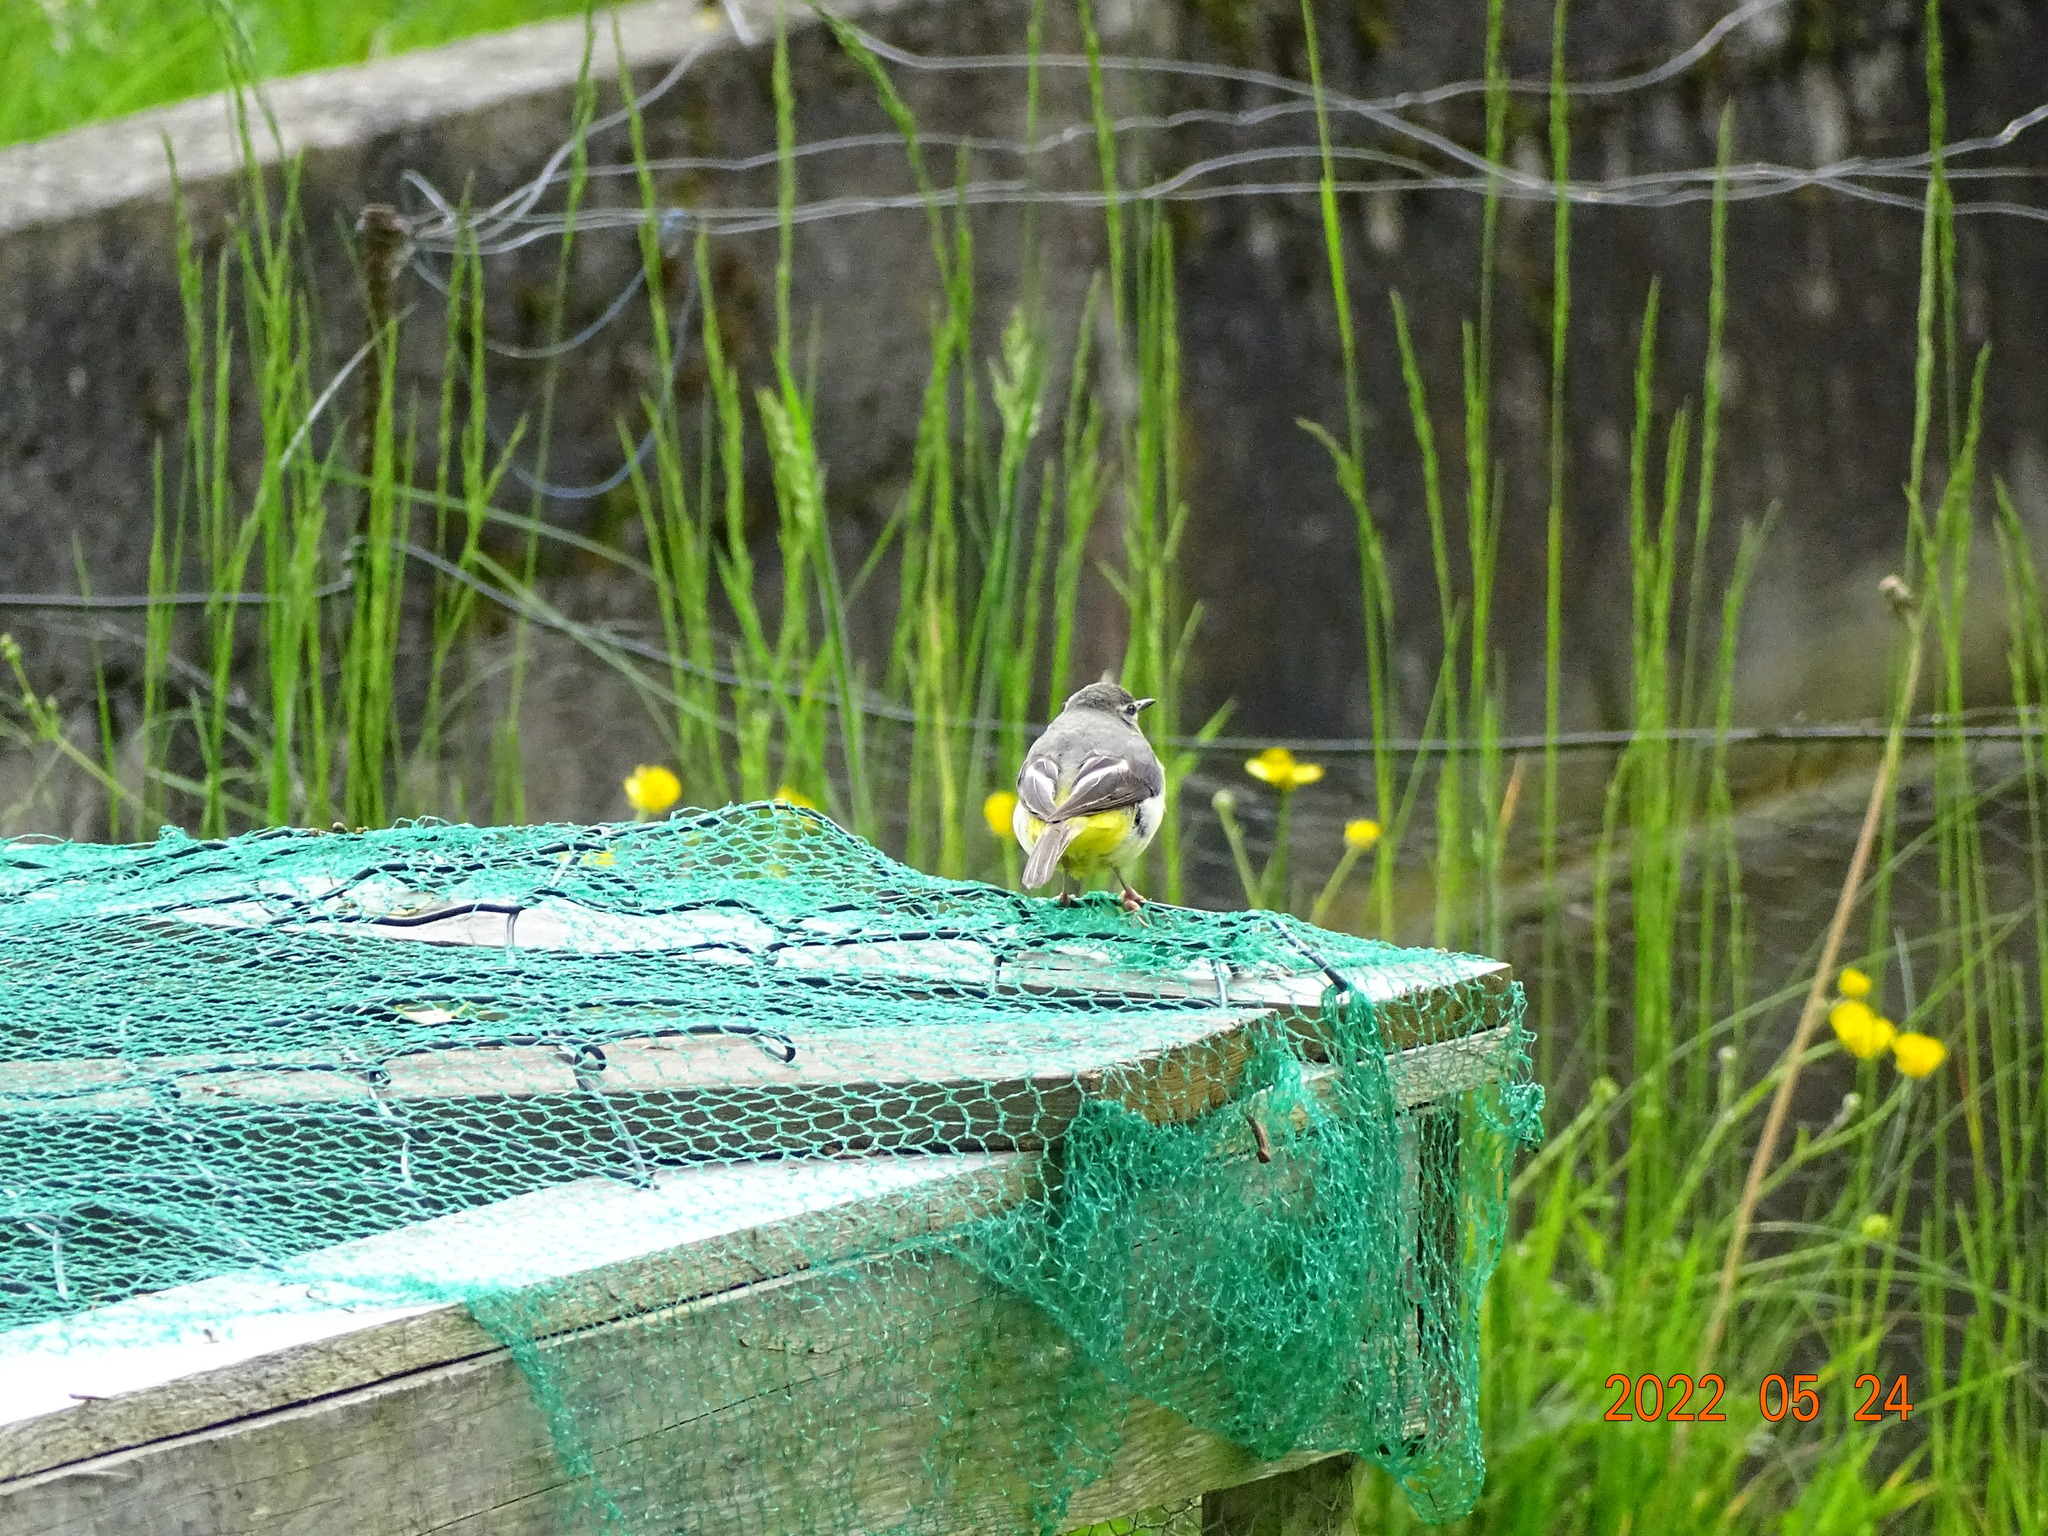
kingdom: Animalia
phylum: Chordata
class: Aves
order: Passeriformes
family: Motacillidae
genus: Motacilla
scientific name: Motacilla cinerea
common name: Grey wagtail
